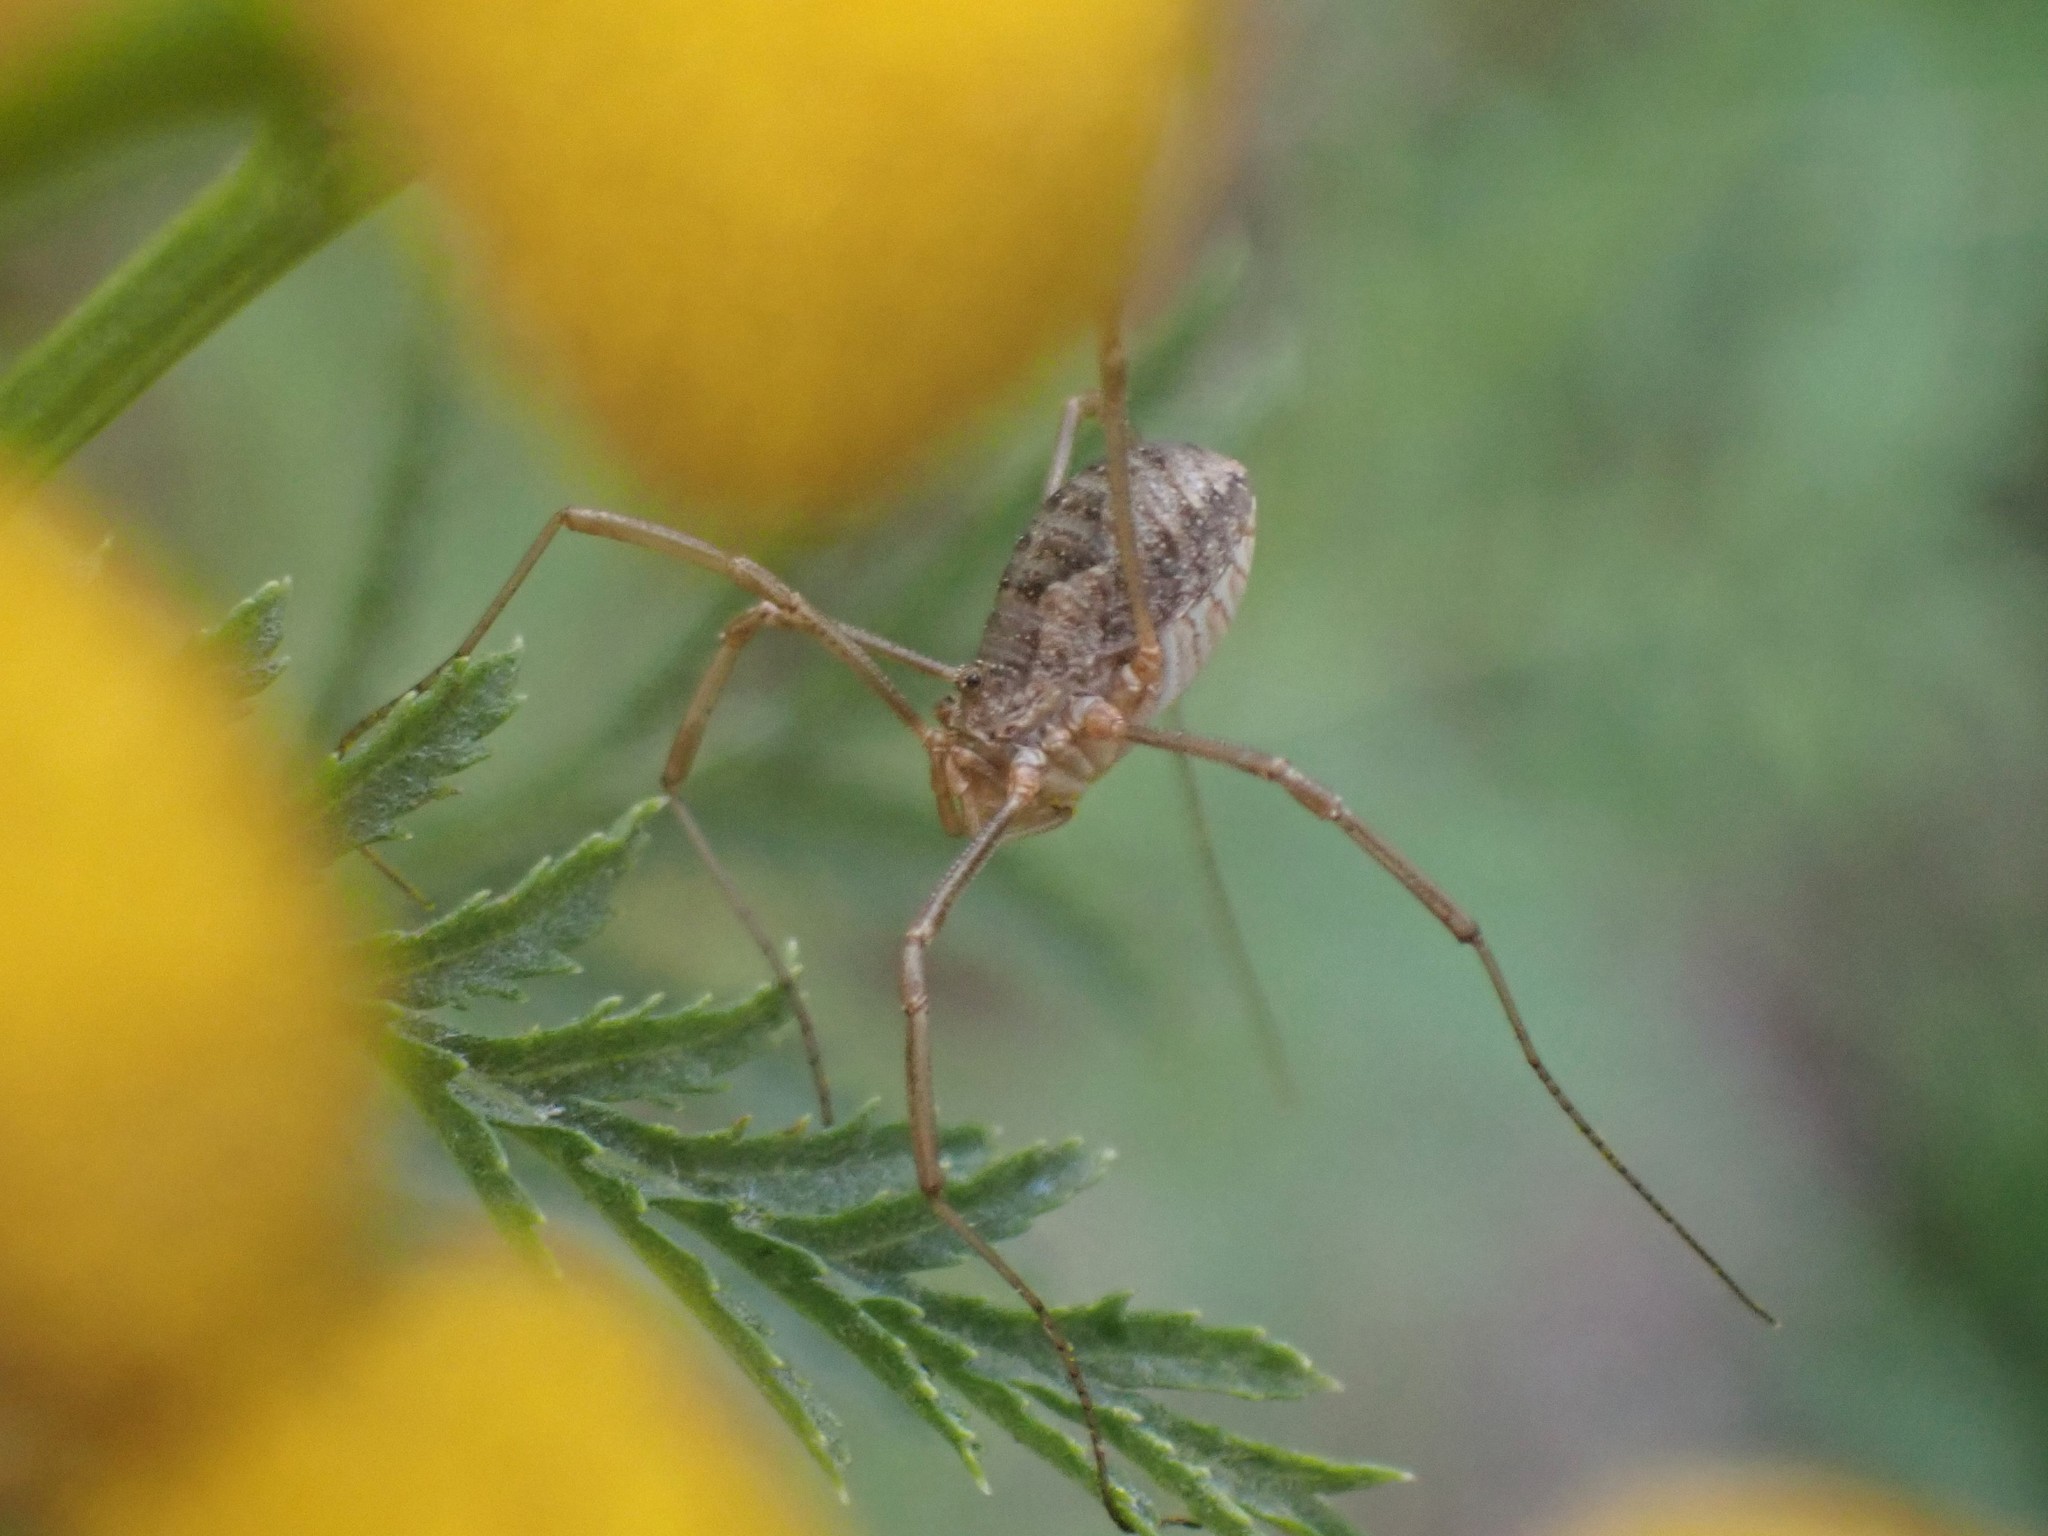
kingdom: Animalia
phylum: Arthropoda
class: Arachnida
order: Opiliones
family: Phalangiidae
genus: Phalangium
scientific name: Phalangium opilio
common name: Daddy longleg
